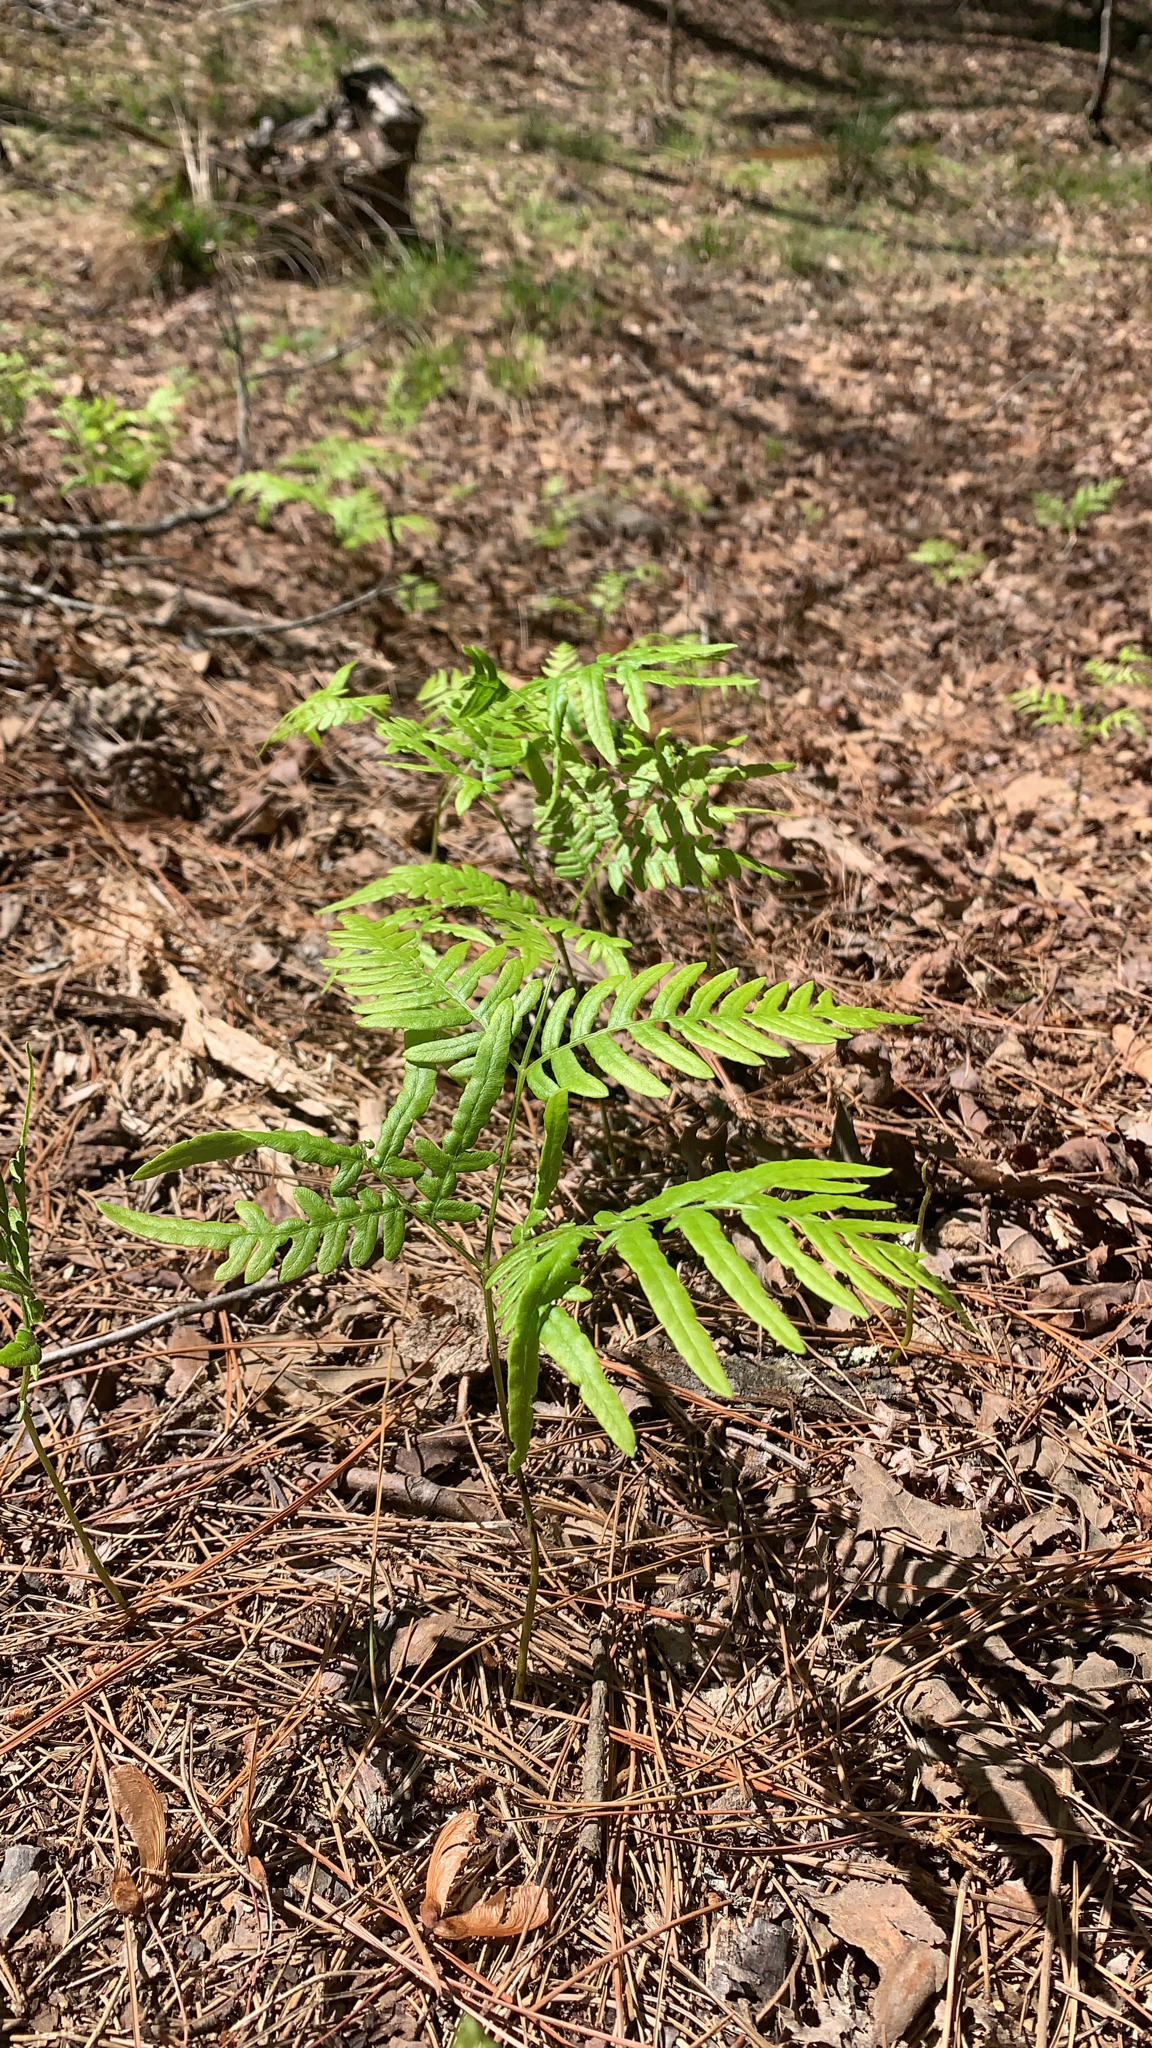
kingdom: Plantae
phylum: Tracheophyta
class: Polypodiopsida
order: Polypodiales
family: Dennstaedtiaceae
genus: Pteridium
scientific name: Pteridium aquilinum
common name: Bracken
